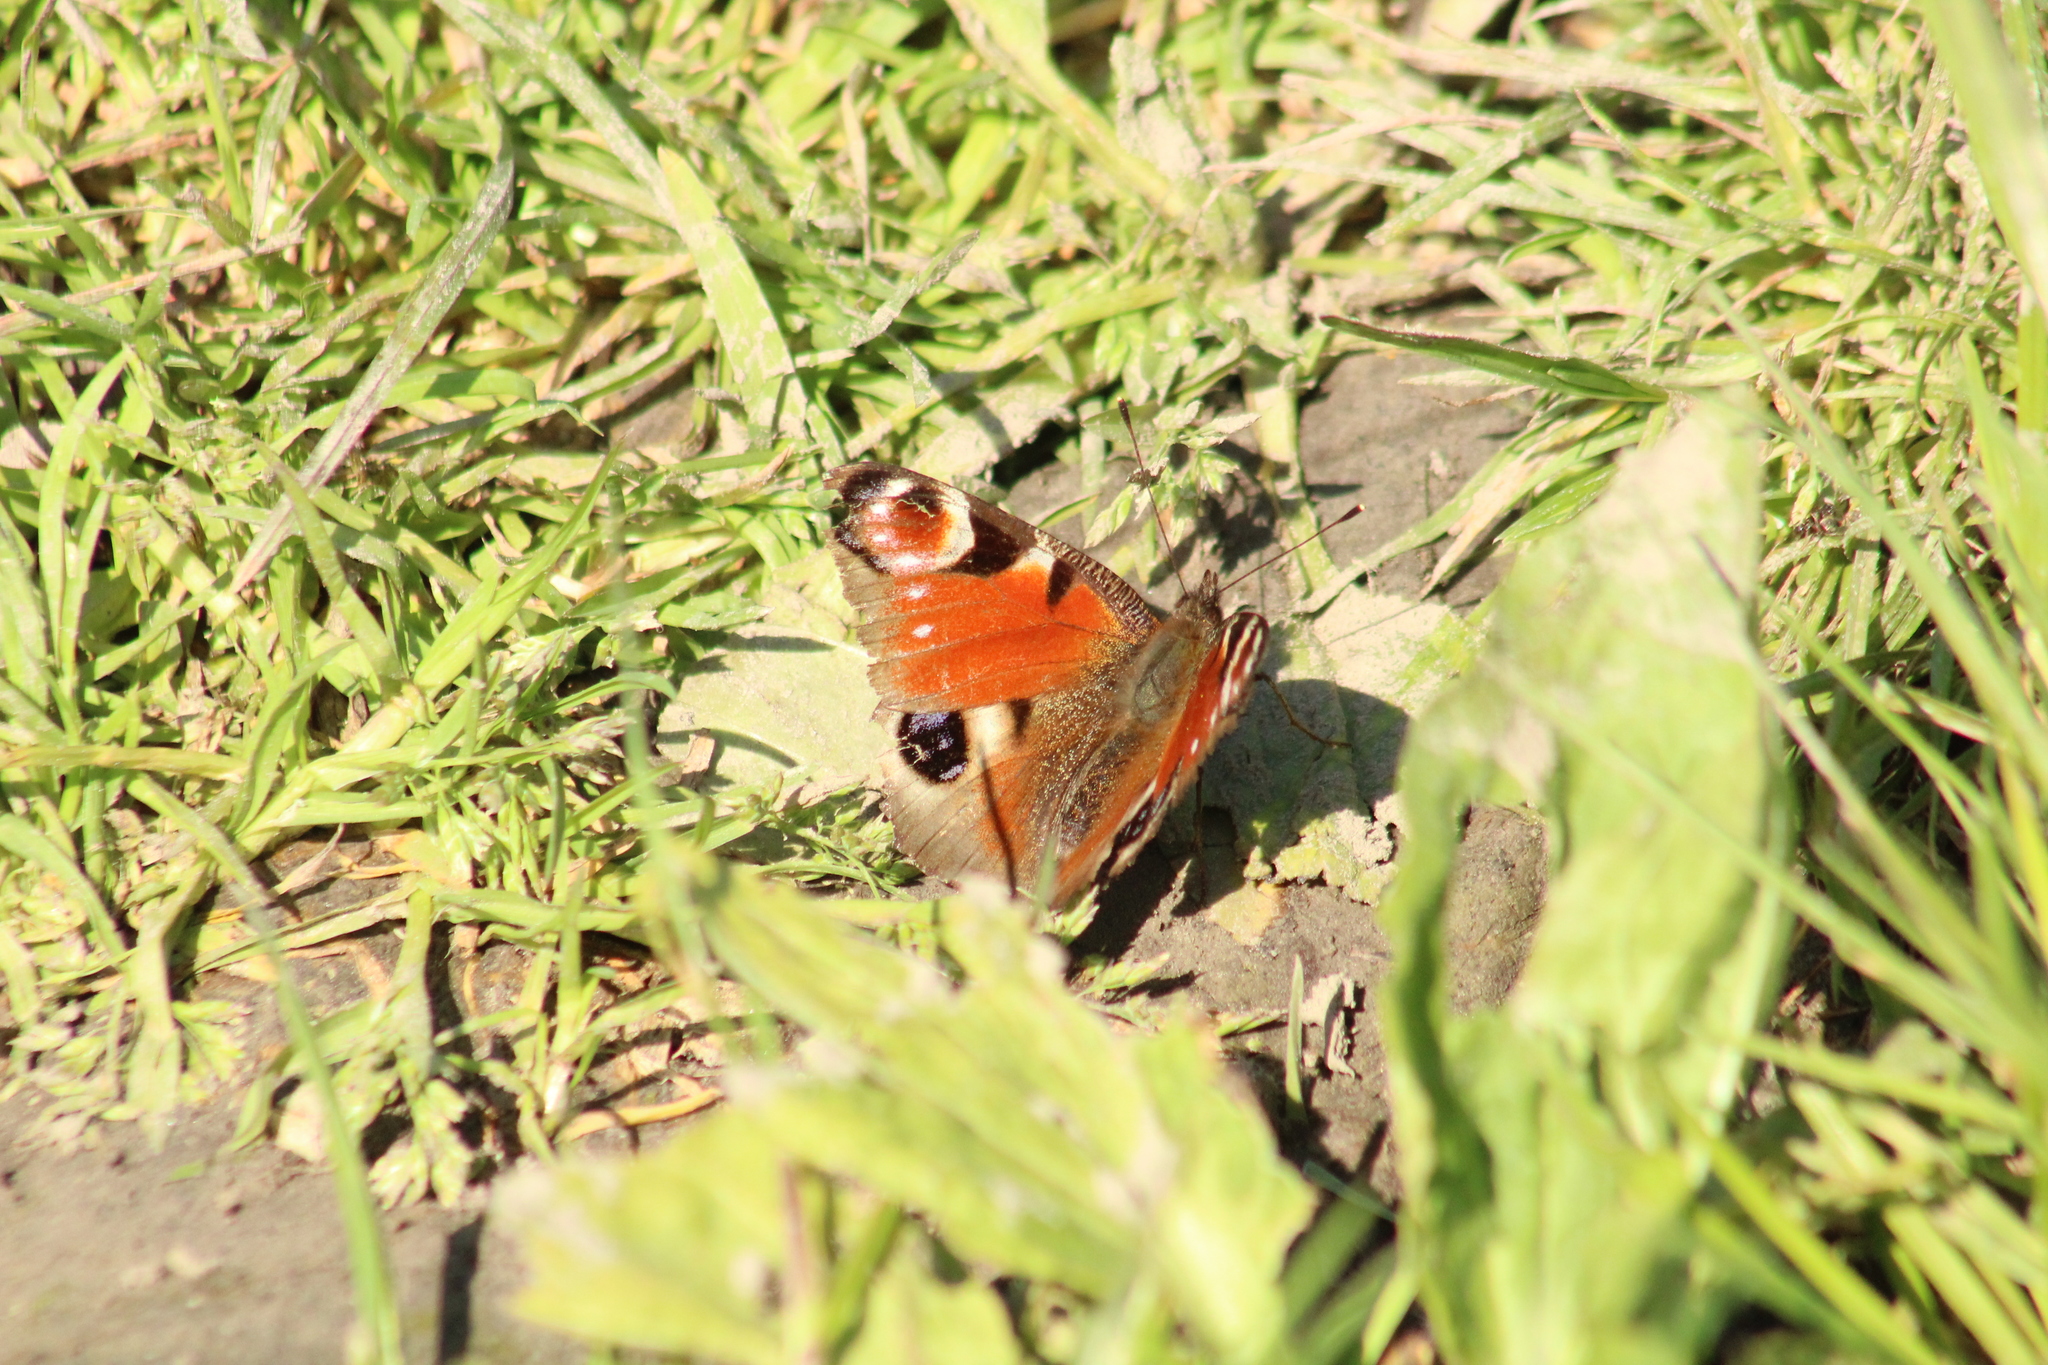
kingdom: Animalia
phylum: Arthropoda
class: Insecta
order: Lepidoptera
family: Nymphalidae
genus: Aglais
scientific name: Aglais io
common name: Peacock
